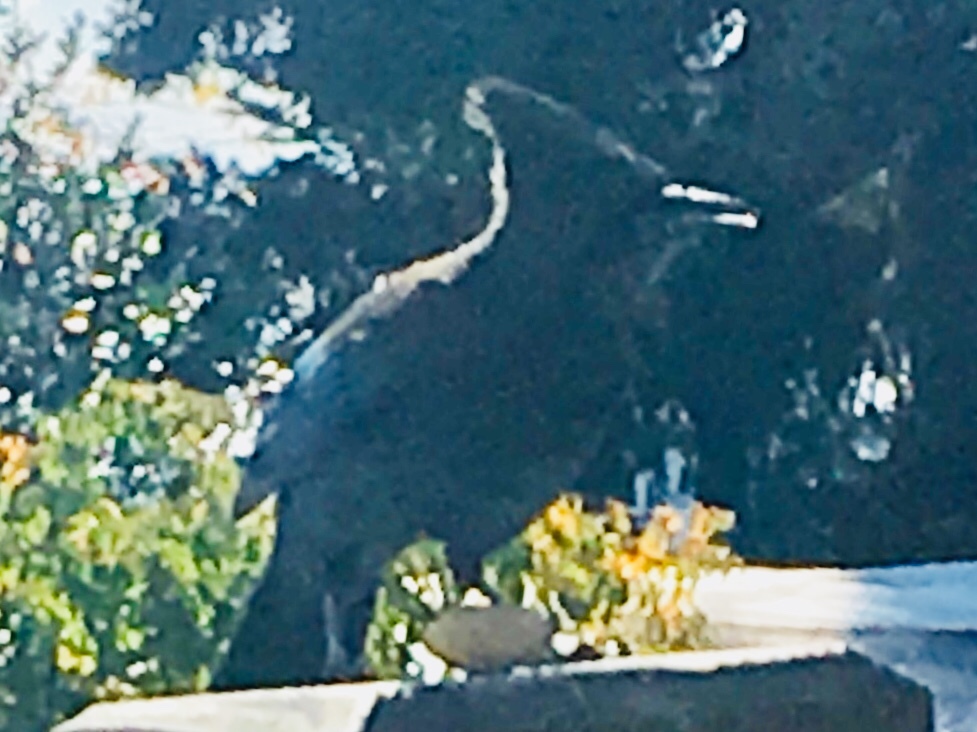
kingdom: Animalia
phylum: Chordata
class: Aves
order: Passeriformes
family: Corvidae
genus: Cyanocitta
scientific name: Cyanocitta stelleri
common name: Steller's jay
